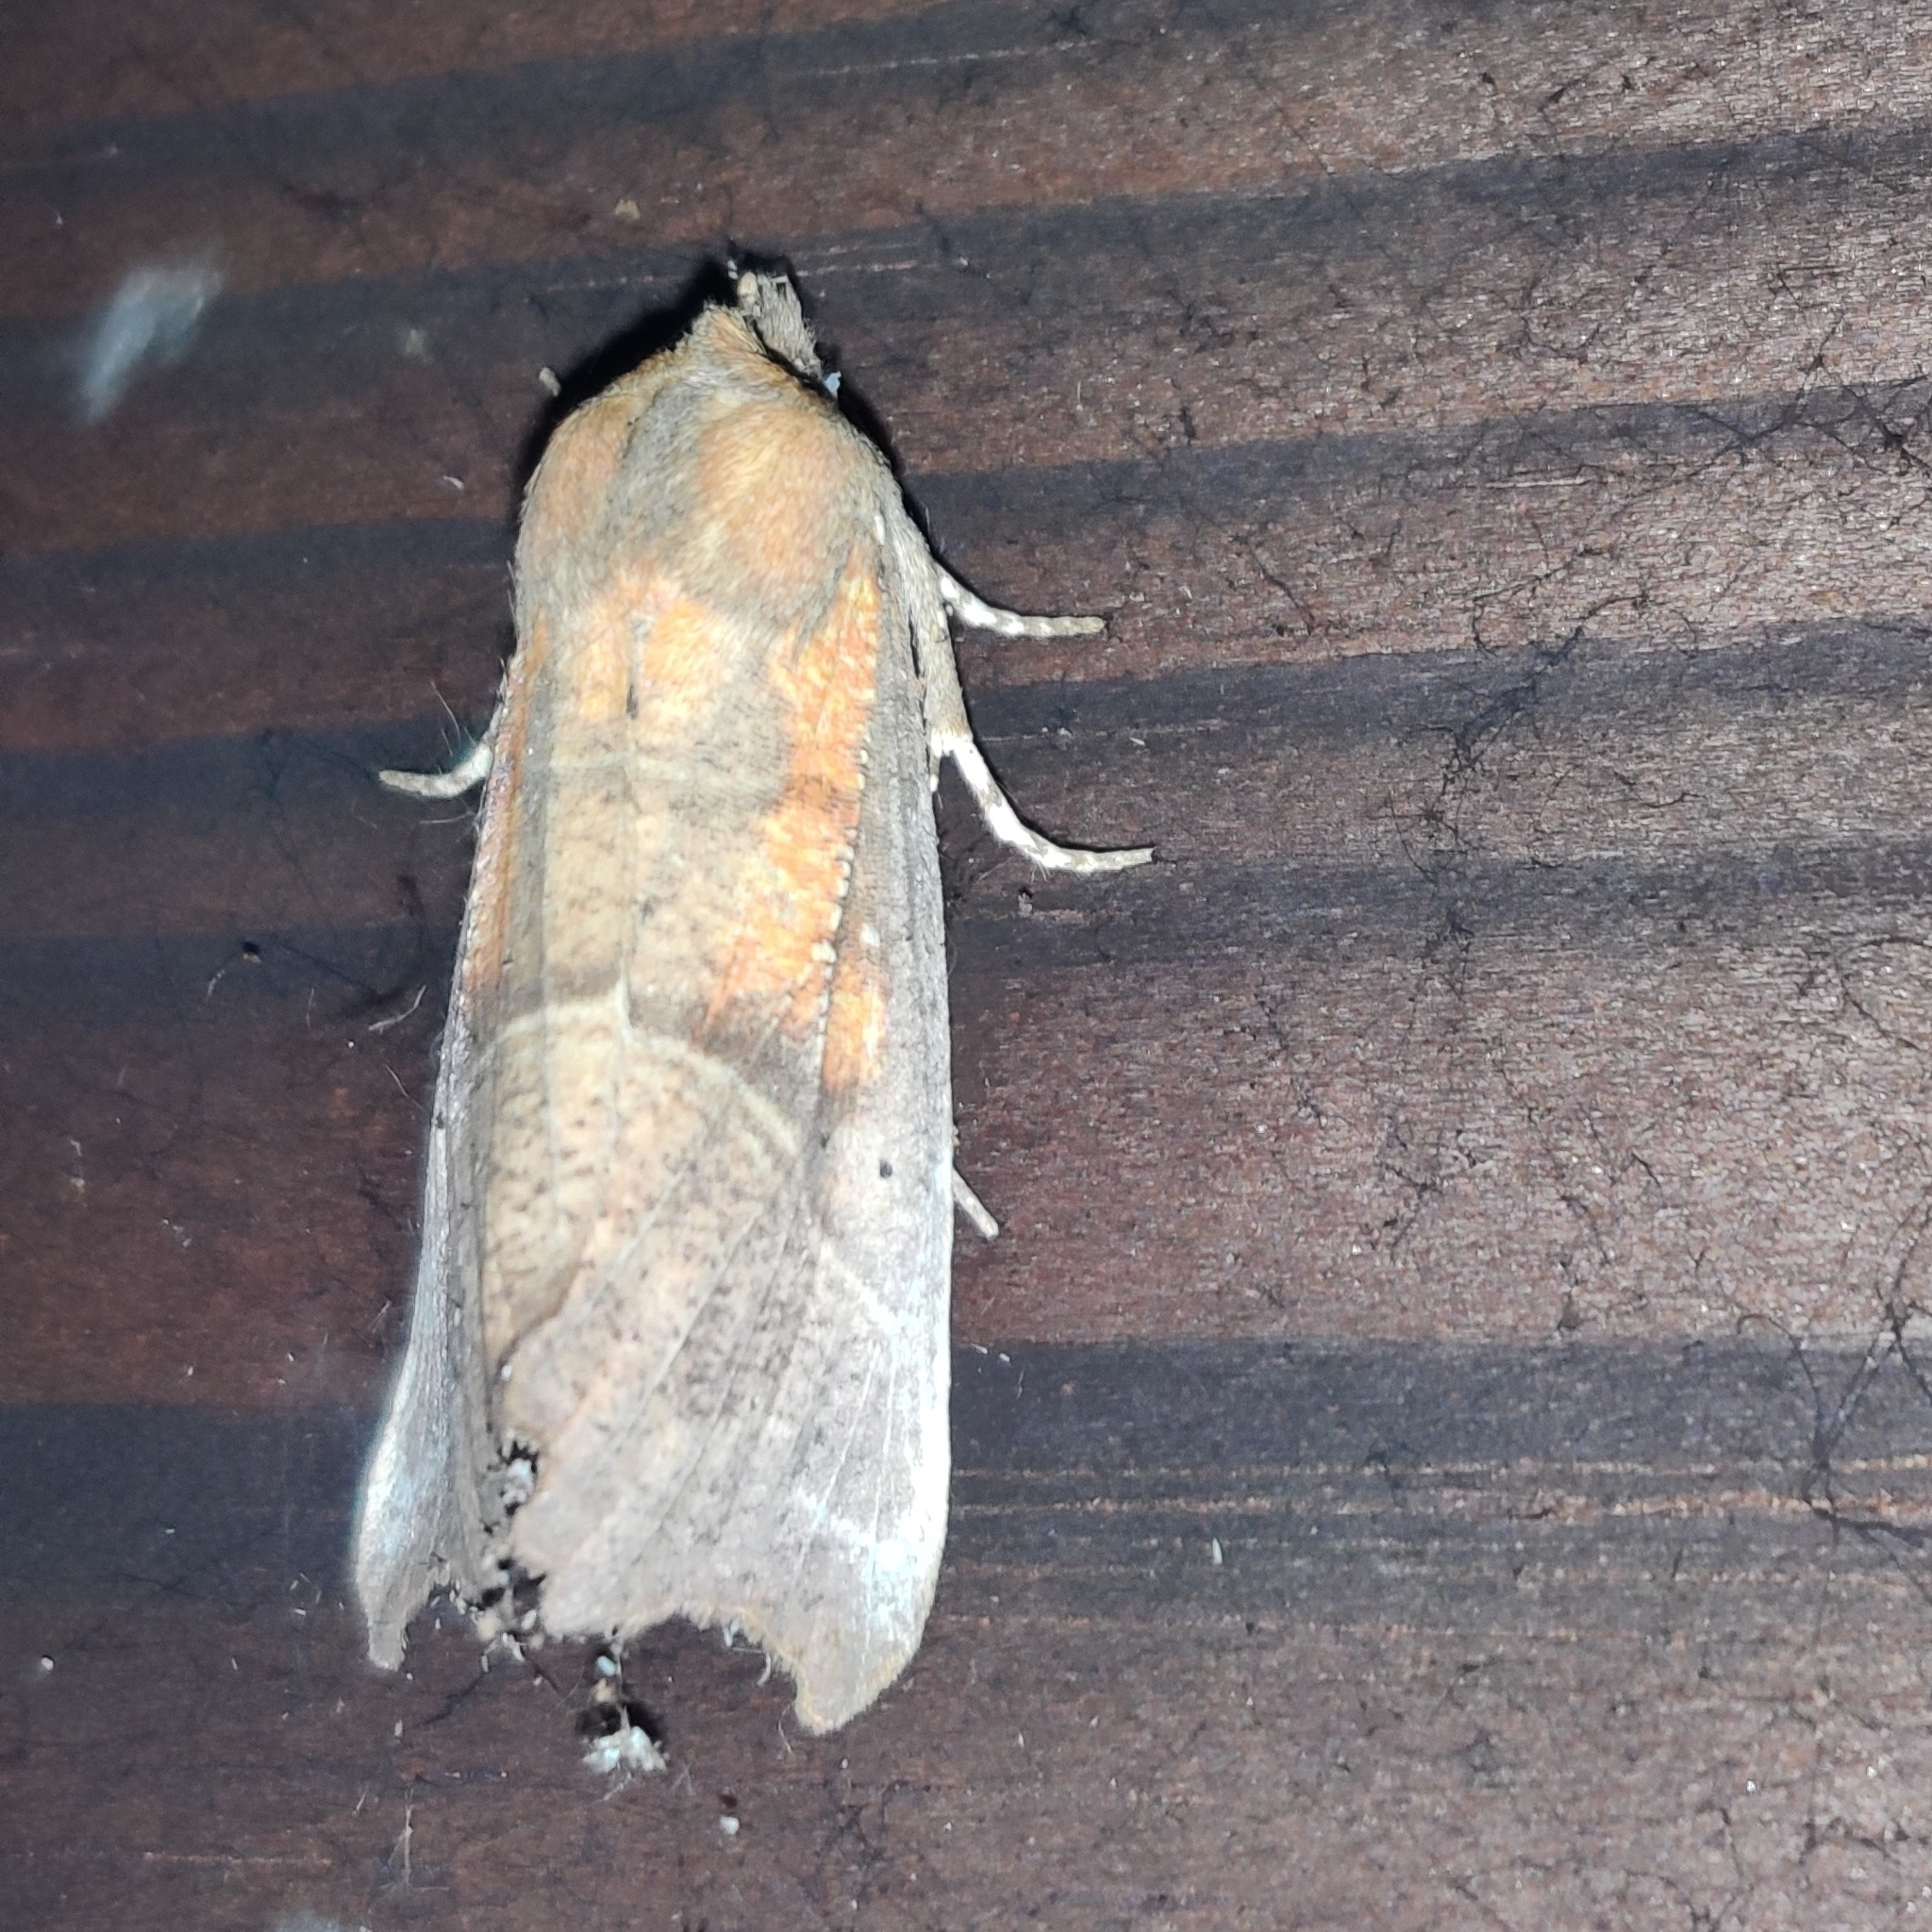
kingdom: Animalia
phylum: Arthropoda
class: Insecta
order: Lepidoptera
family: Erebidae
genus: Scoliopteryx
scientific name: Scoliopteryx libatrix
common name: Herald
